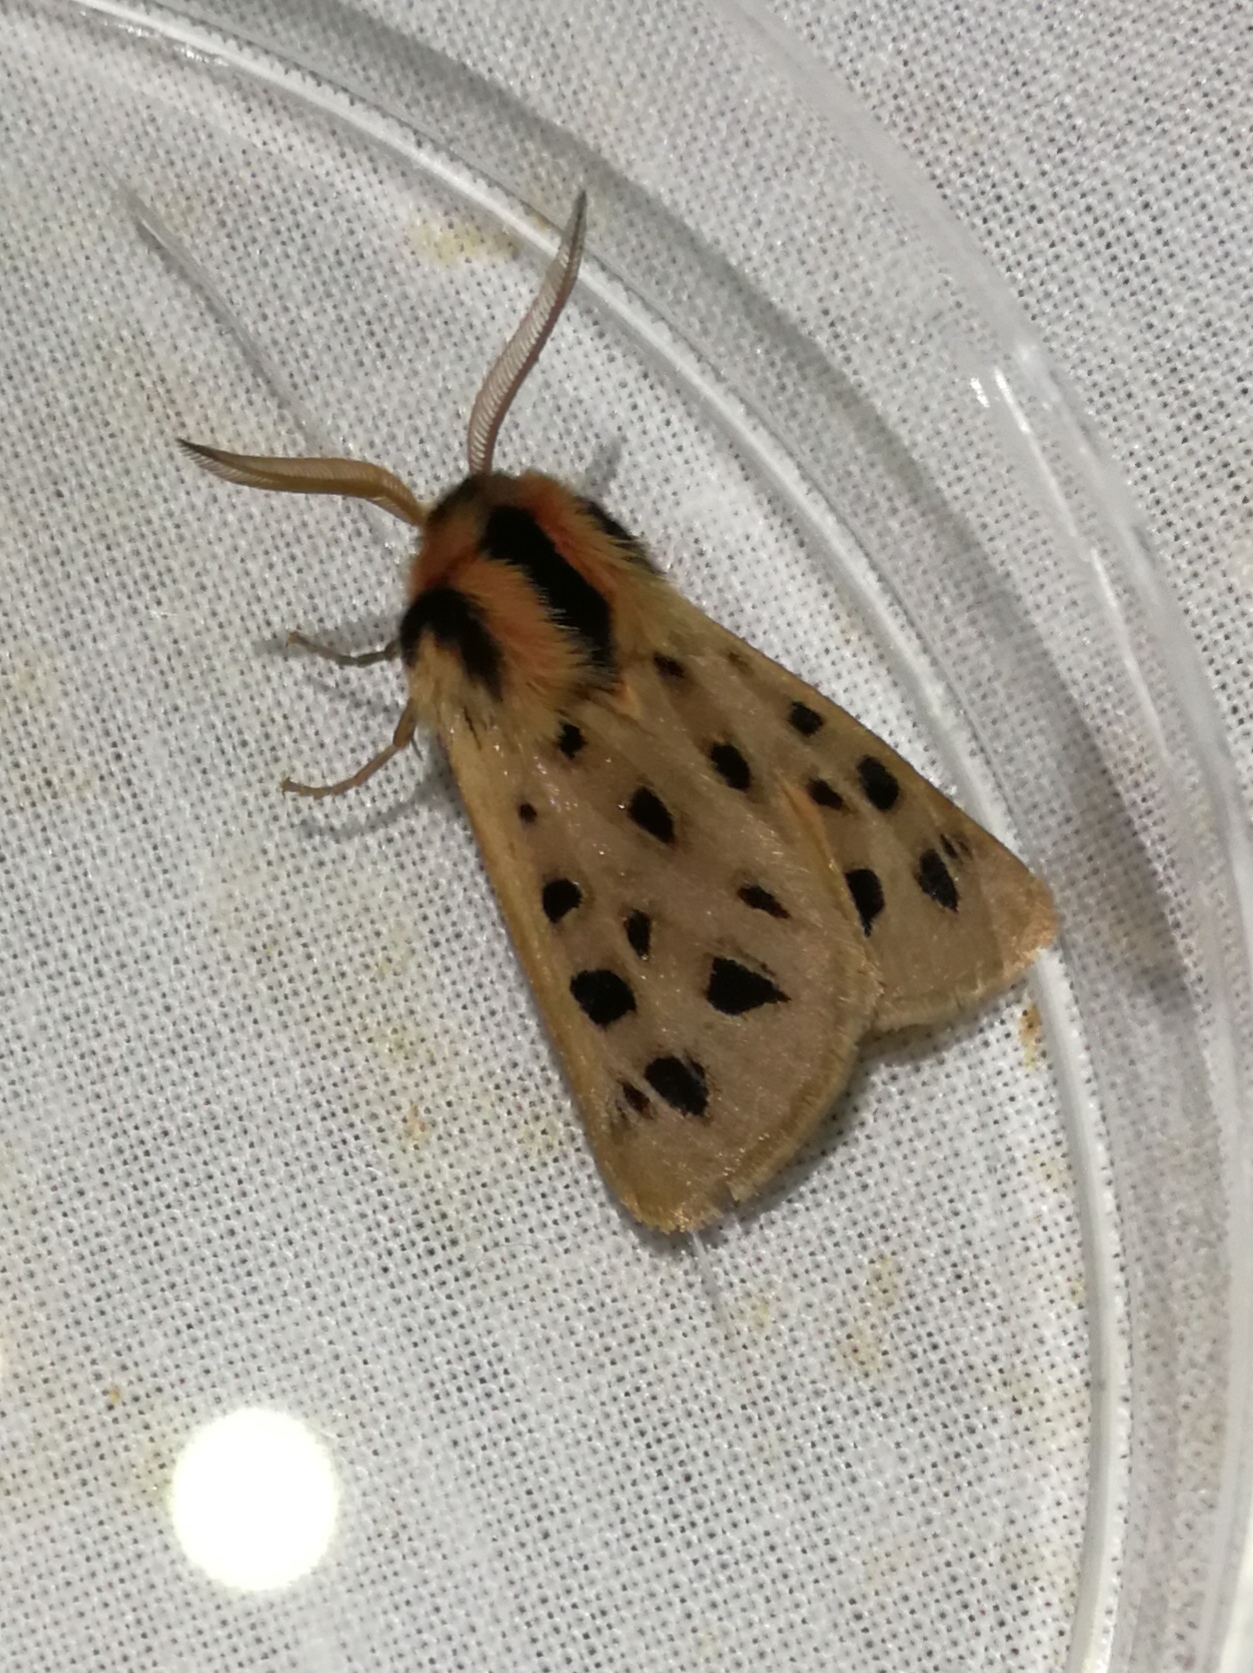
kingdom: Animalia
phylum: Arthropoda
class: Insecta
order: Lepidoptera
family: Erebidae
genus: Chelis
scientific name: Chelis maculosa
